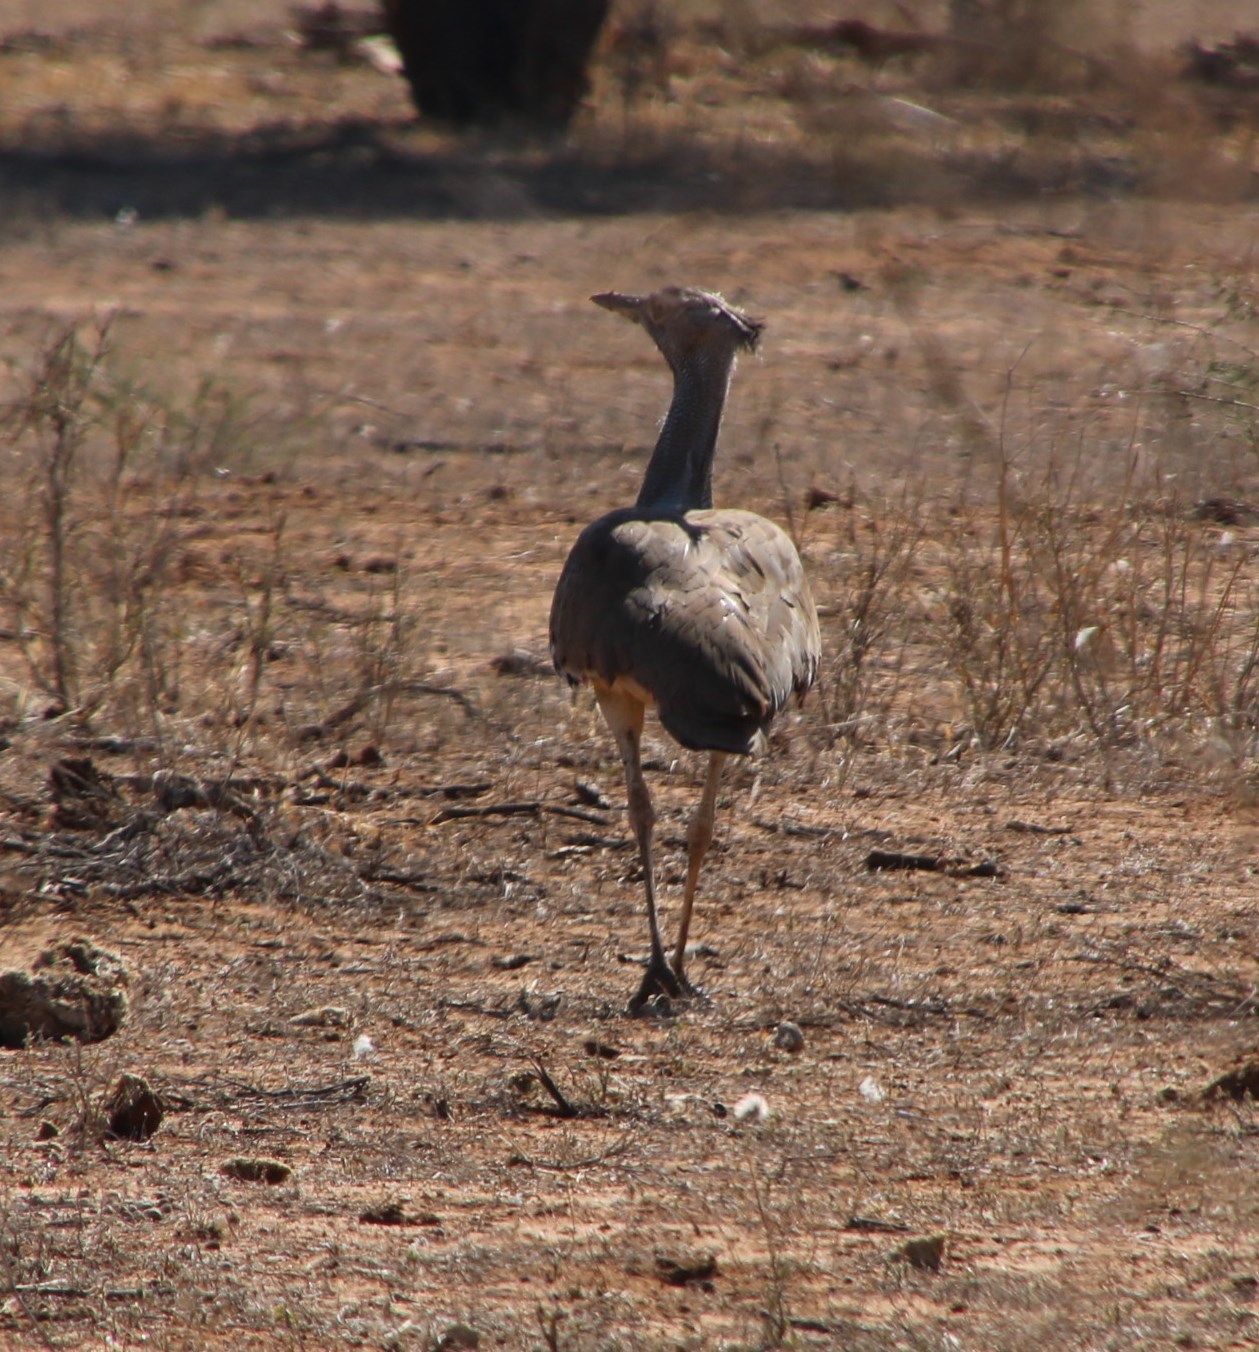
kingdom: Animalia
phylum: Chordata
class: Aves
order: Otidiformes
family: Otididae
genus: Ardeotis
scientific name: Ardeotis kori
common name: Kori bustard
